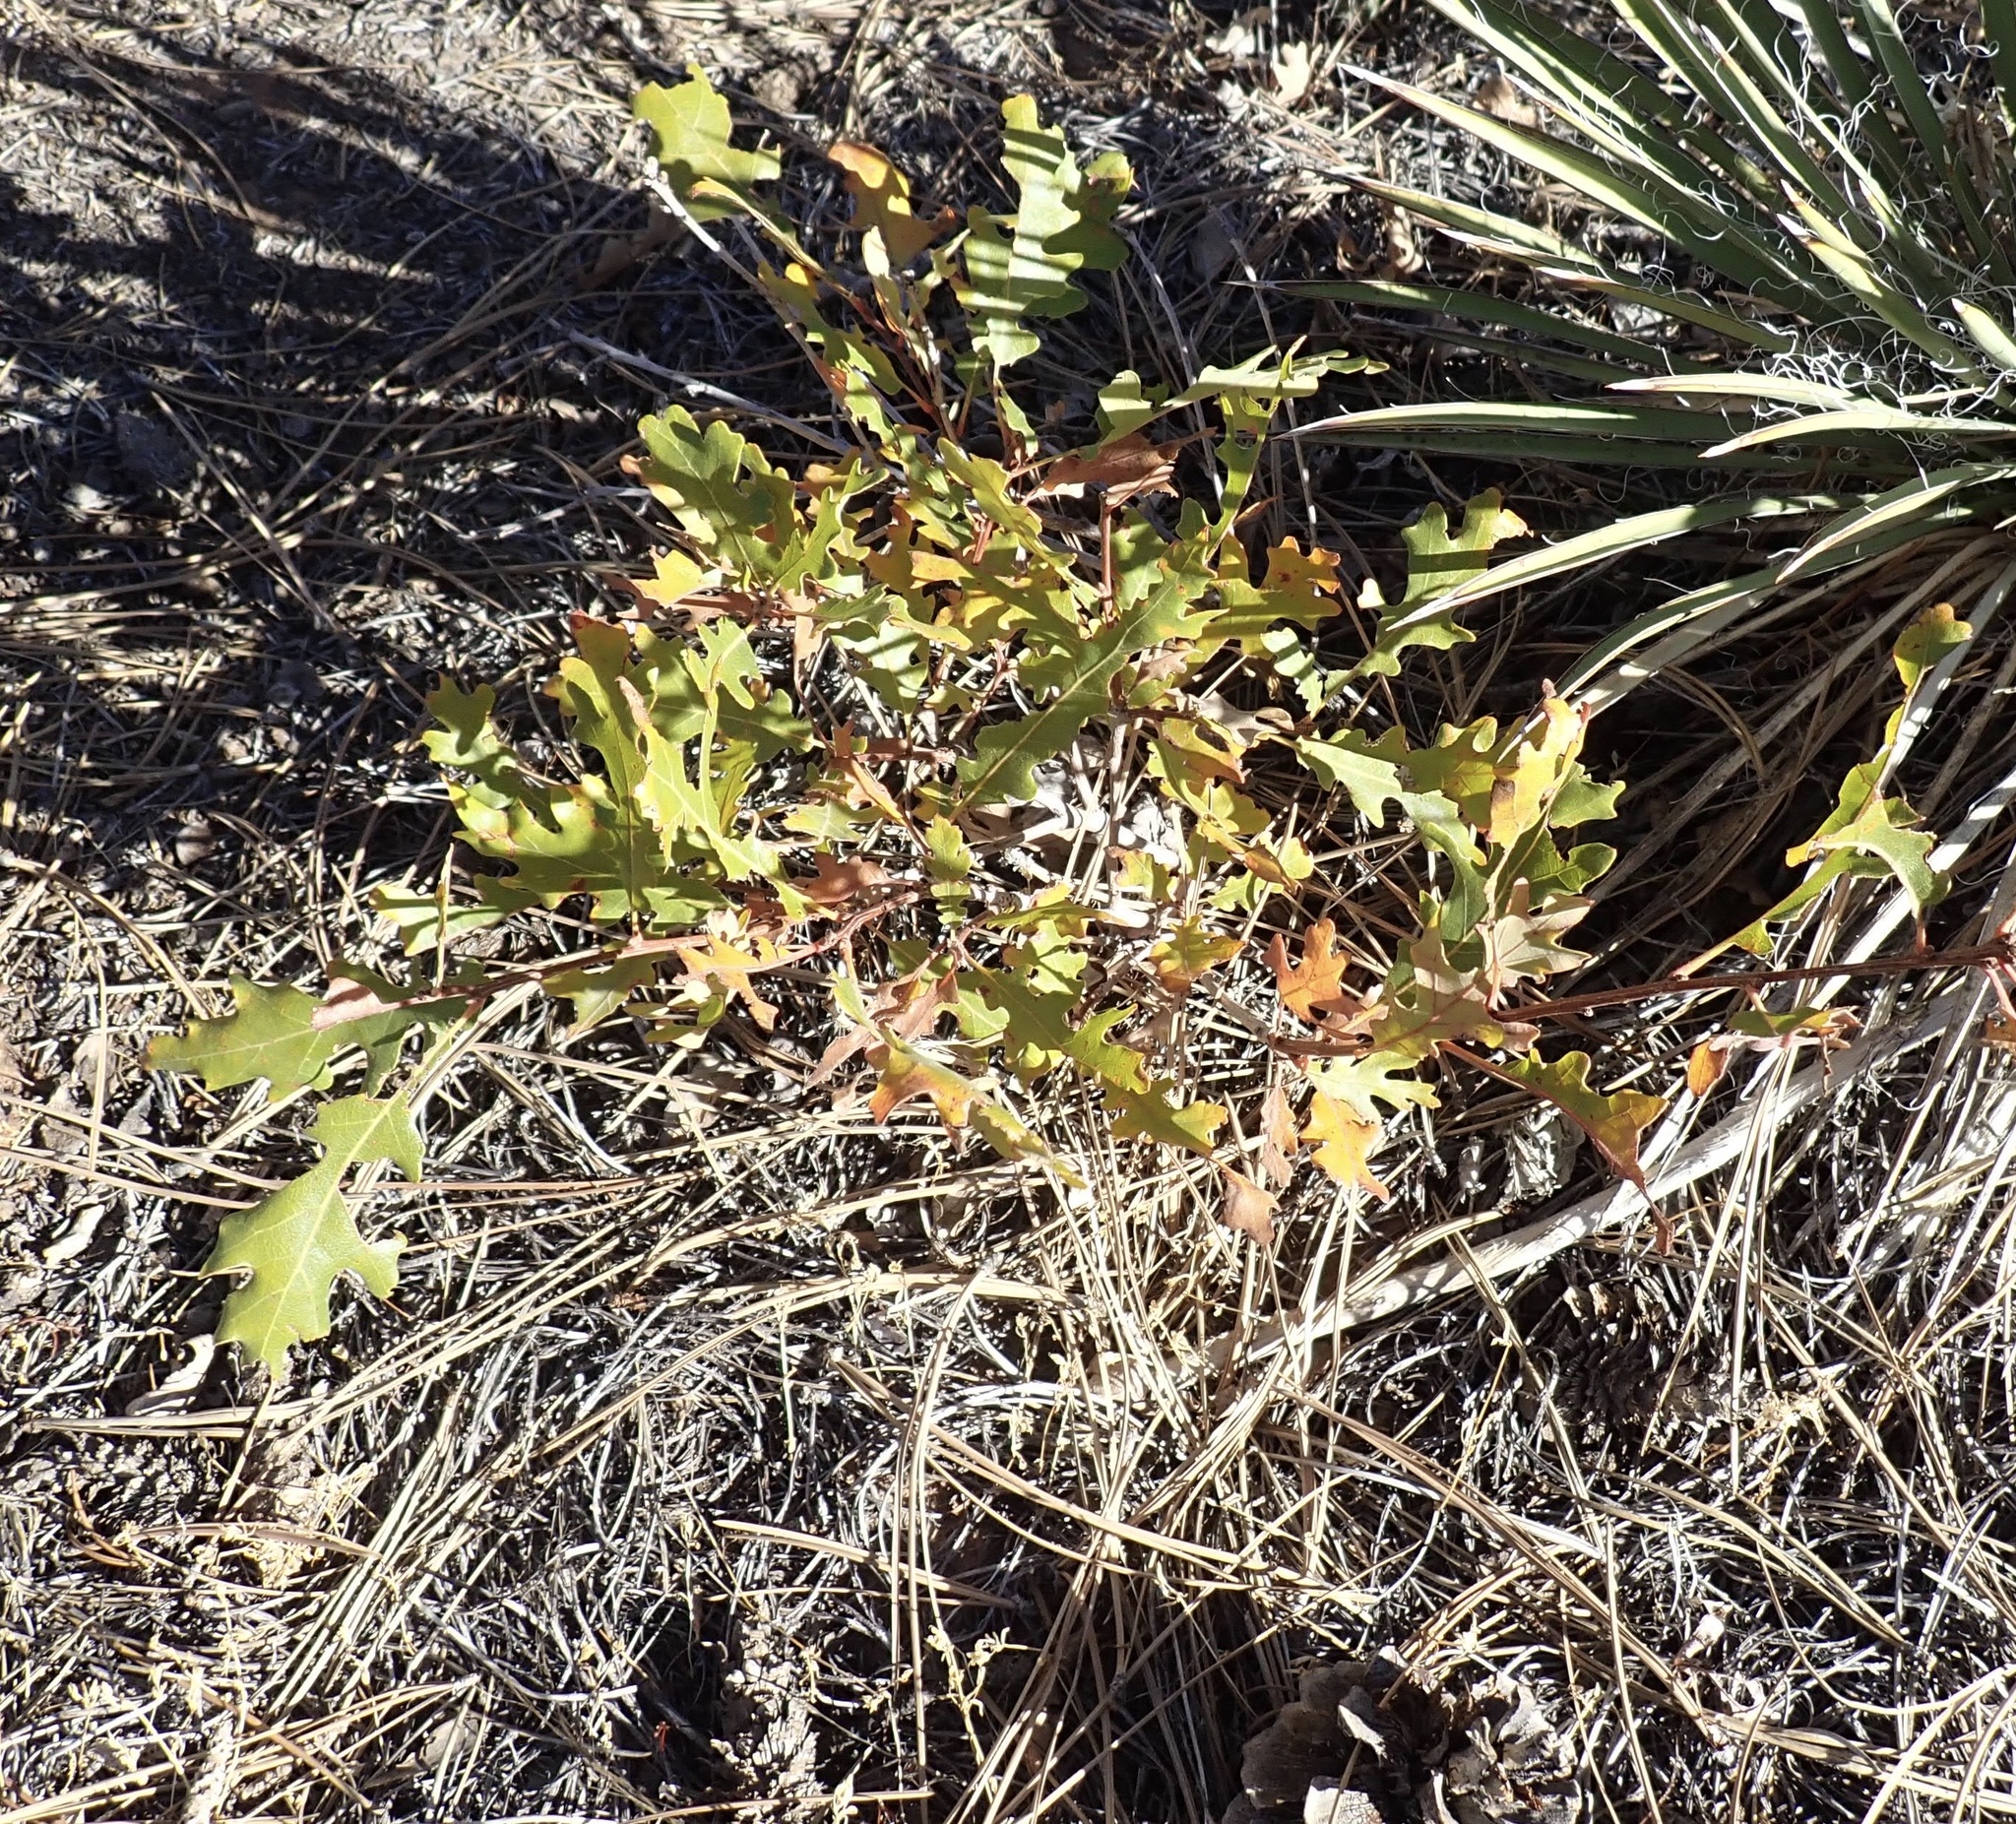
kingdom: Plantae
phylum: Tracheophyta
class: Magnoliopsida
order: Fagales
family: Fagaceae
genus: Quercus
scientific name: Quercus gambelii
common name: Gambel oak
